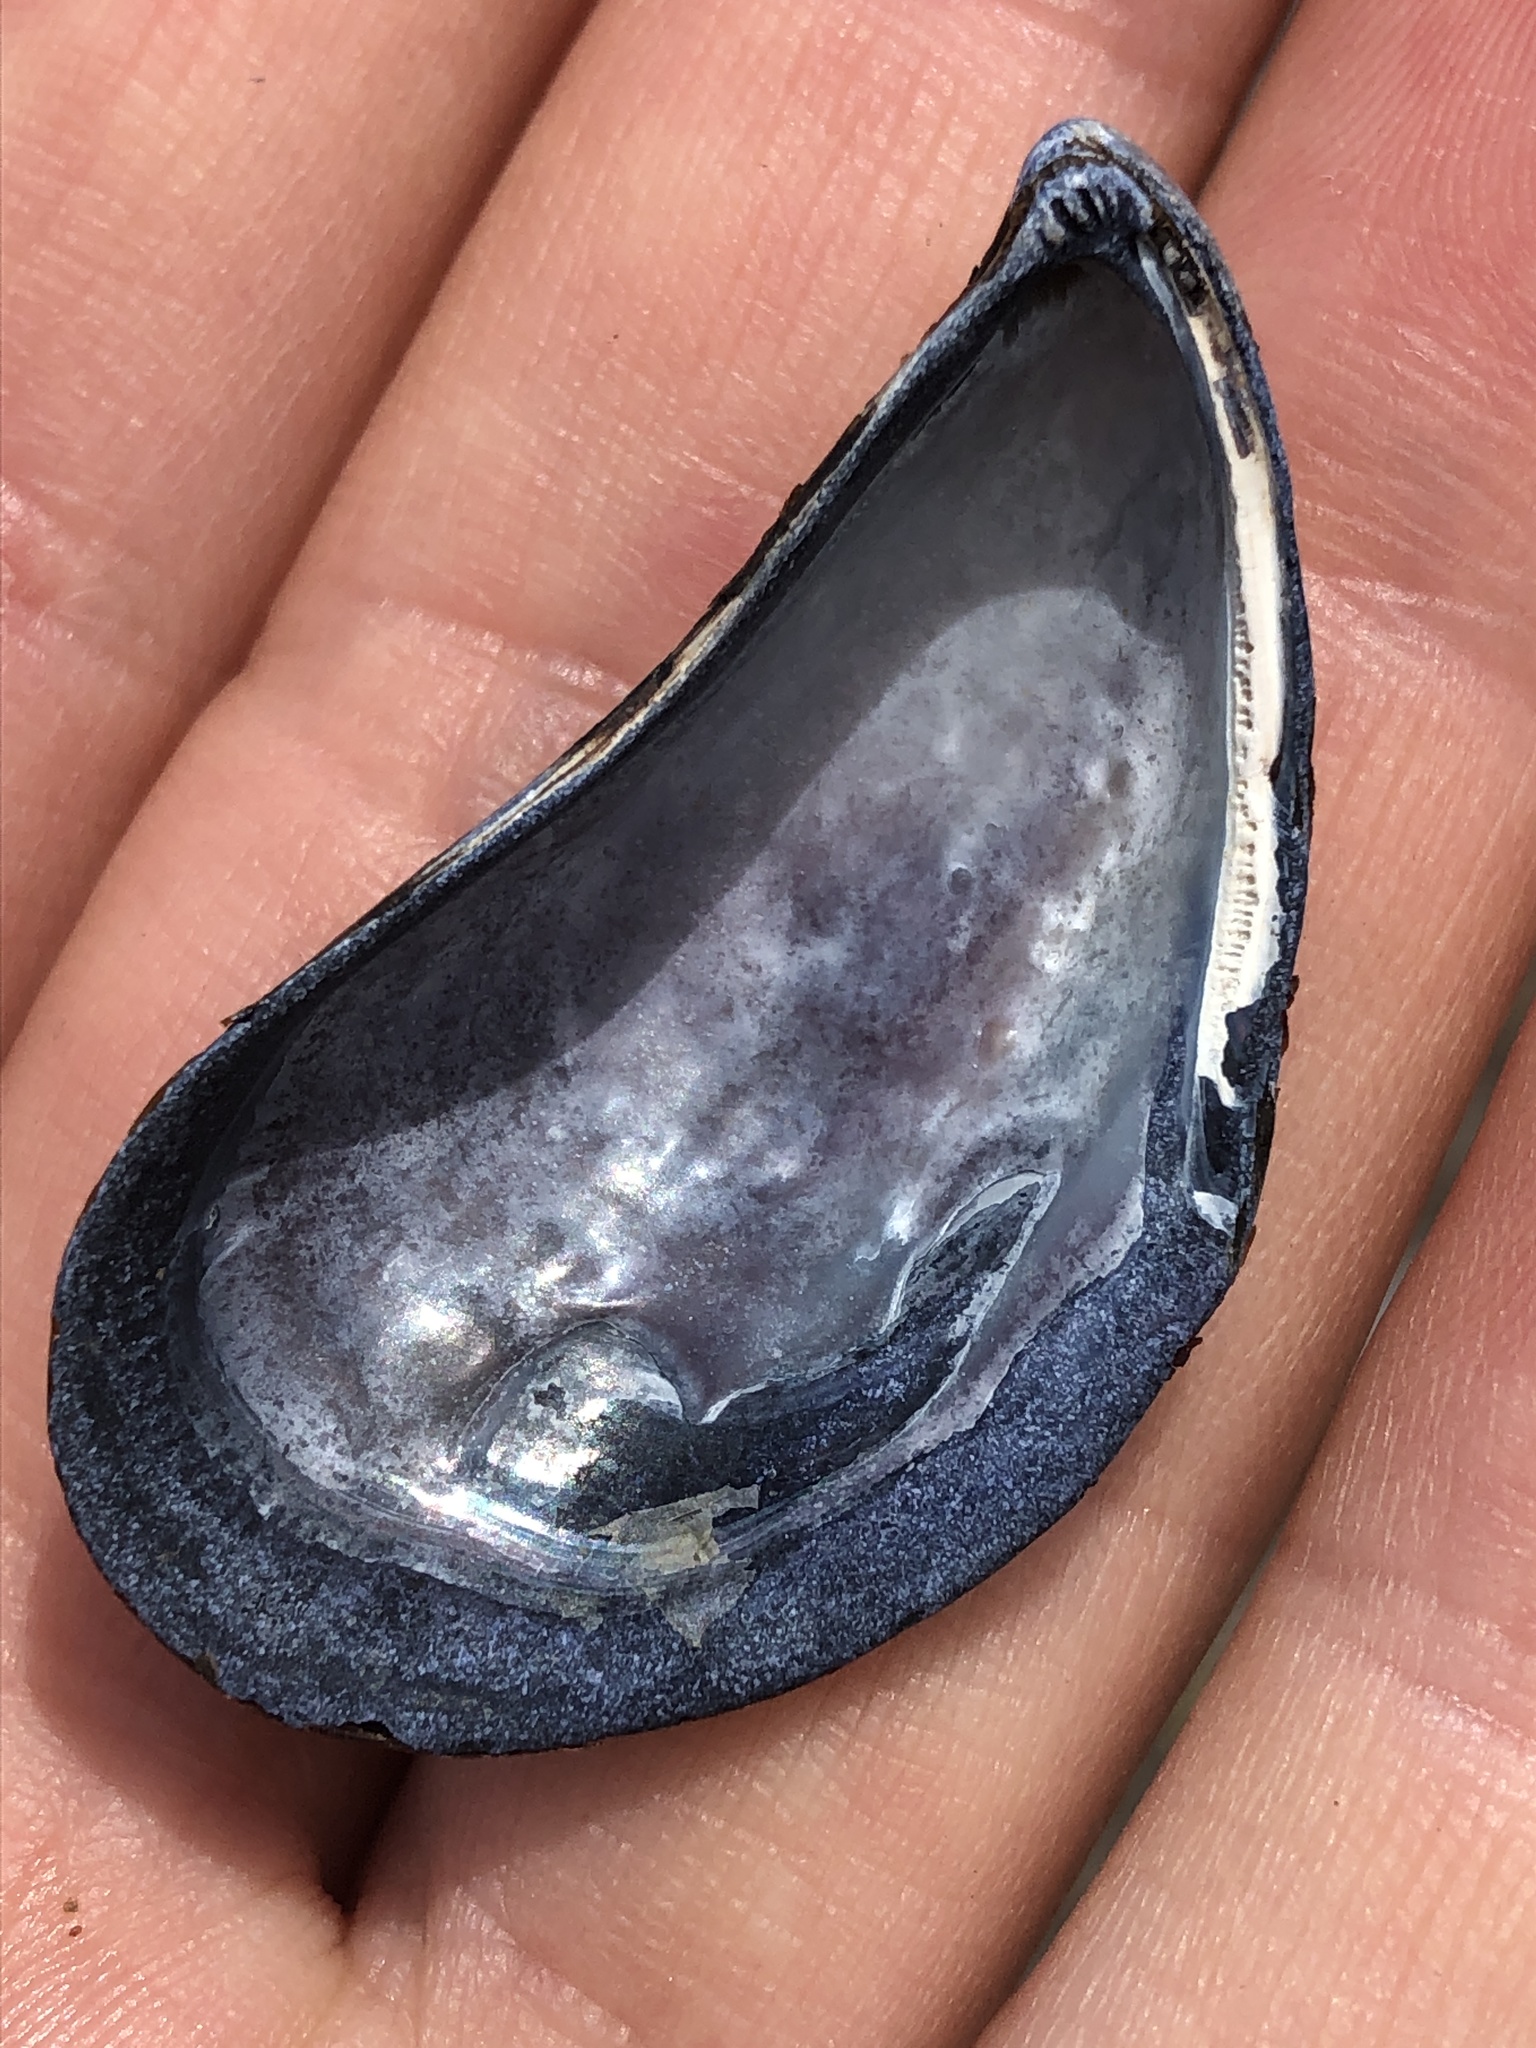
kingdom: Animalia
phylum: Mollusca
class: Bivalvia
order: Mytilida
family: Mytilidae
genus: Mytilus
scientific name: Mytilus
